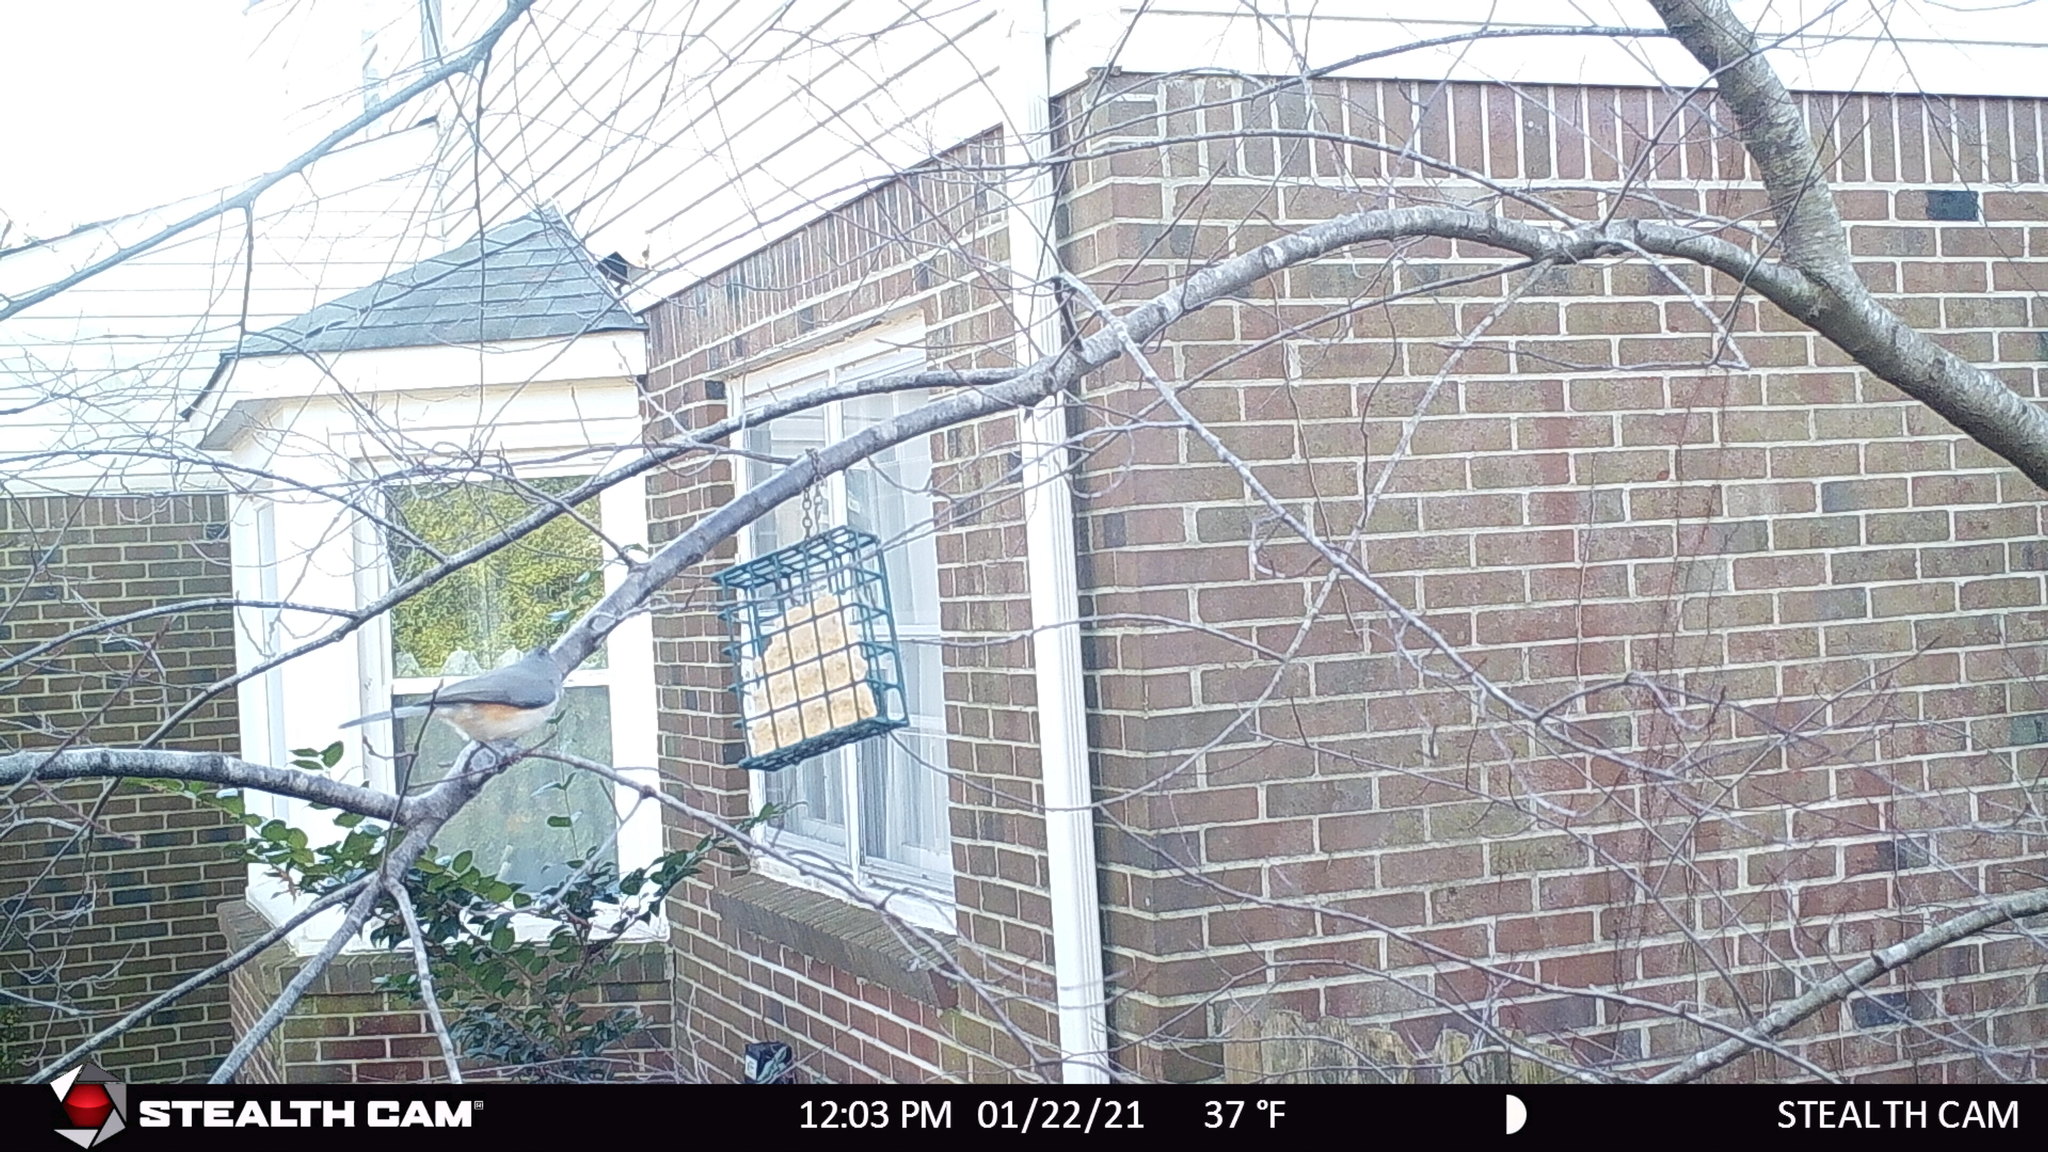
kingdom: Animalia
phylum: Chordata
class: Aves
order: Passeriformes
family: Paridae
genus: Baeolophus
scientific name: Baeolophus bicolor
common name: Tufted titmouse
